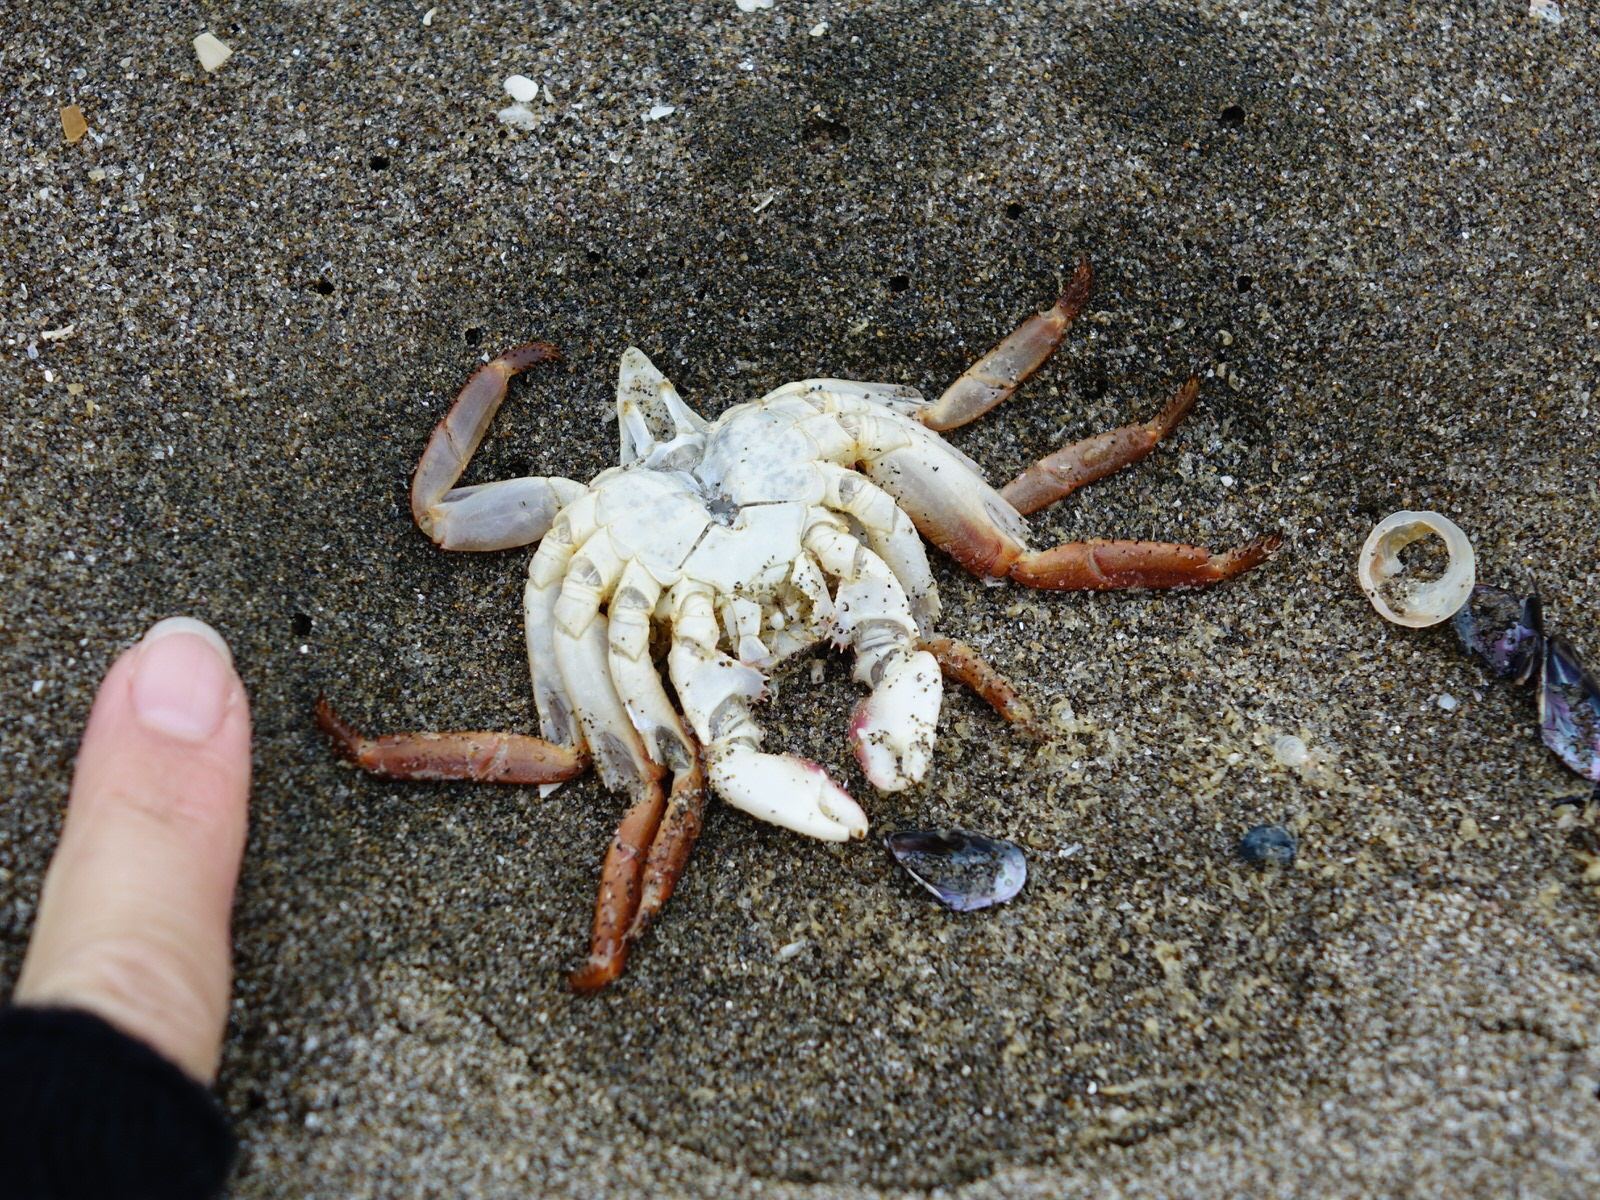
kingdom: Animalia
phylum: Arthropoda
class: Malacostraca
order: Decapoda
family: Varunidae
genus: Cyclograpsus
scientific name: Cyclograpsus lavauxi
